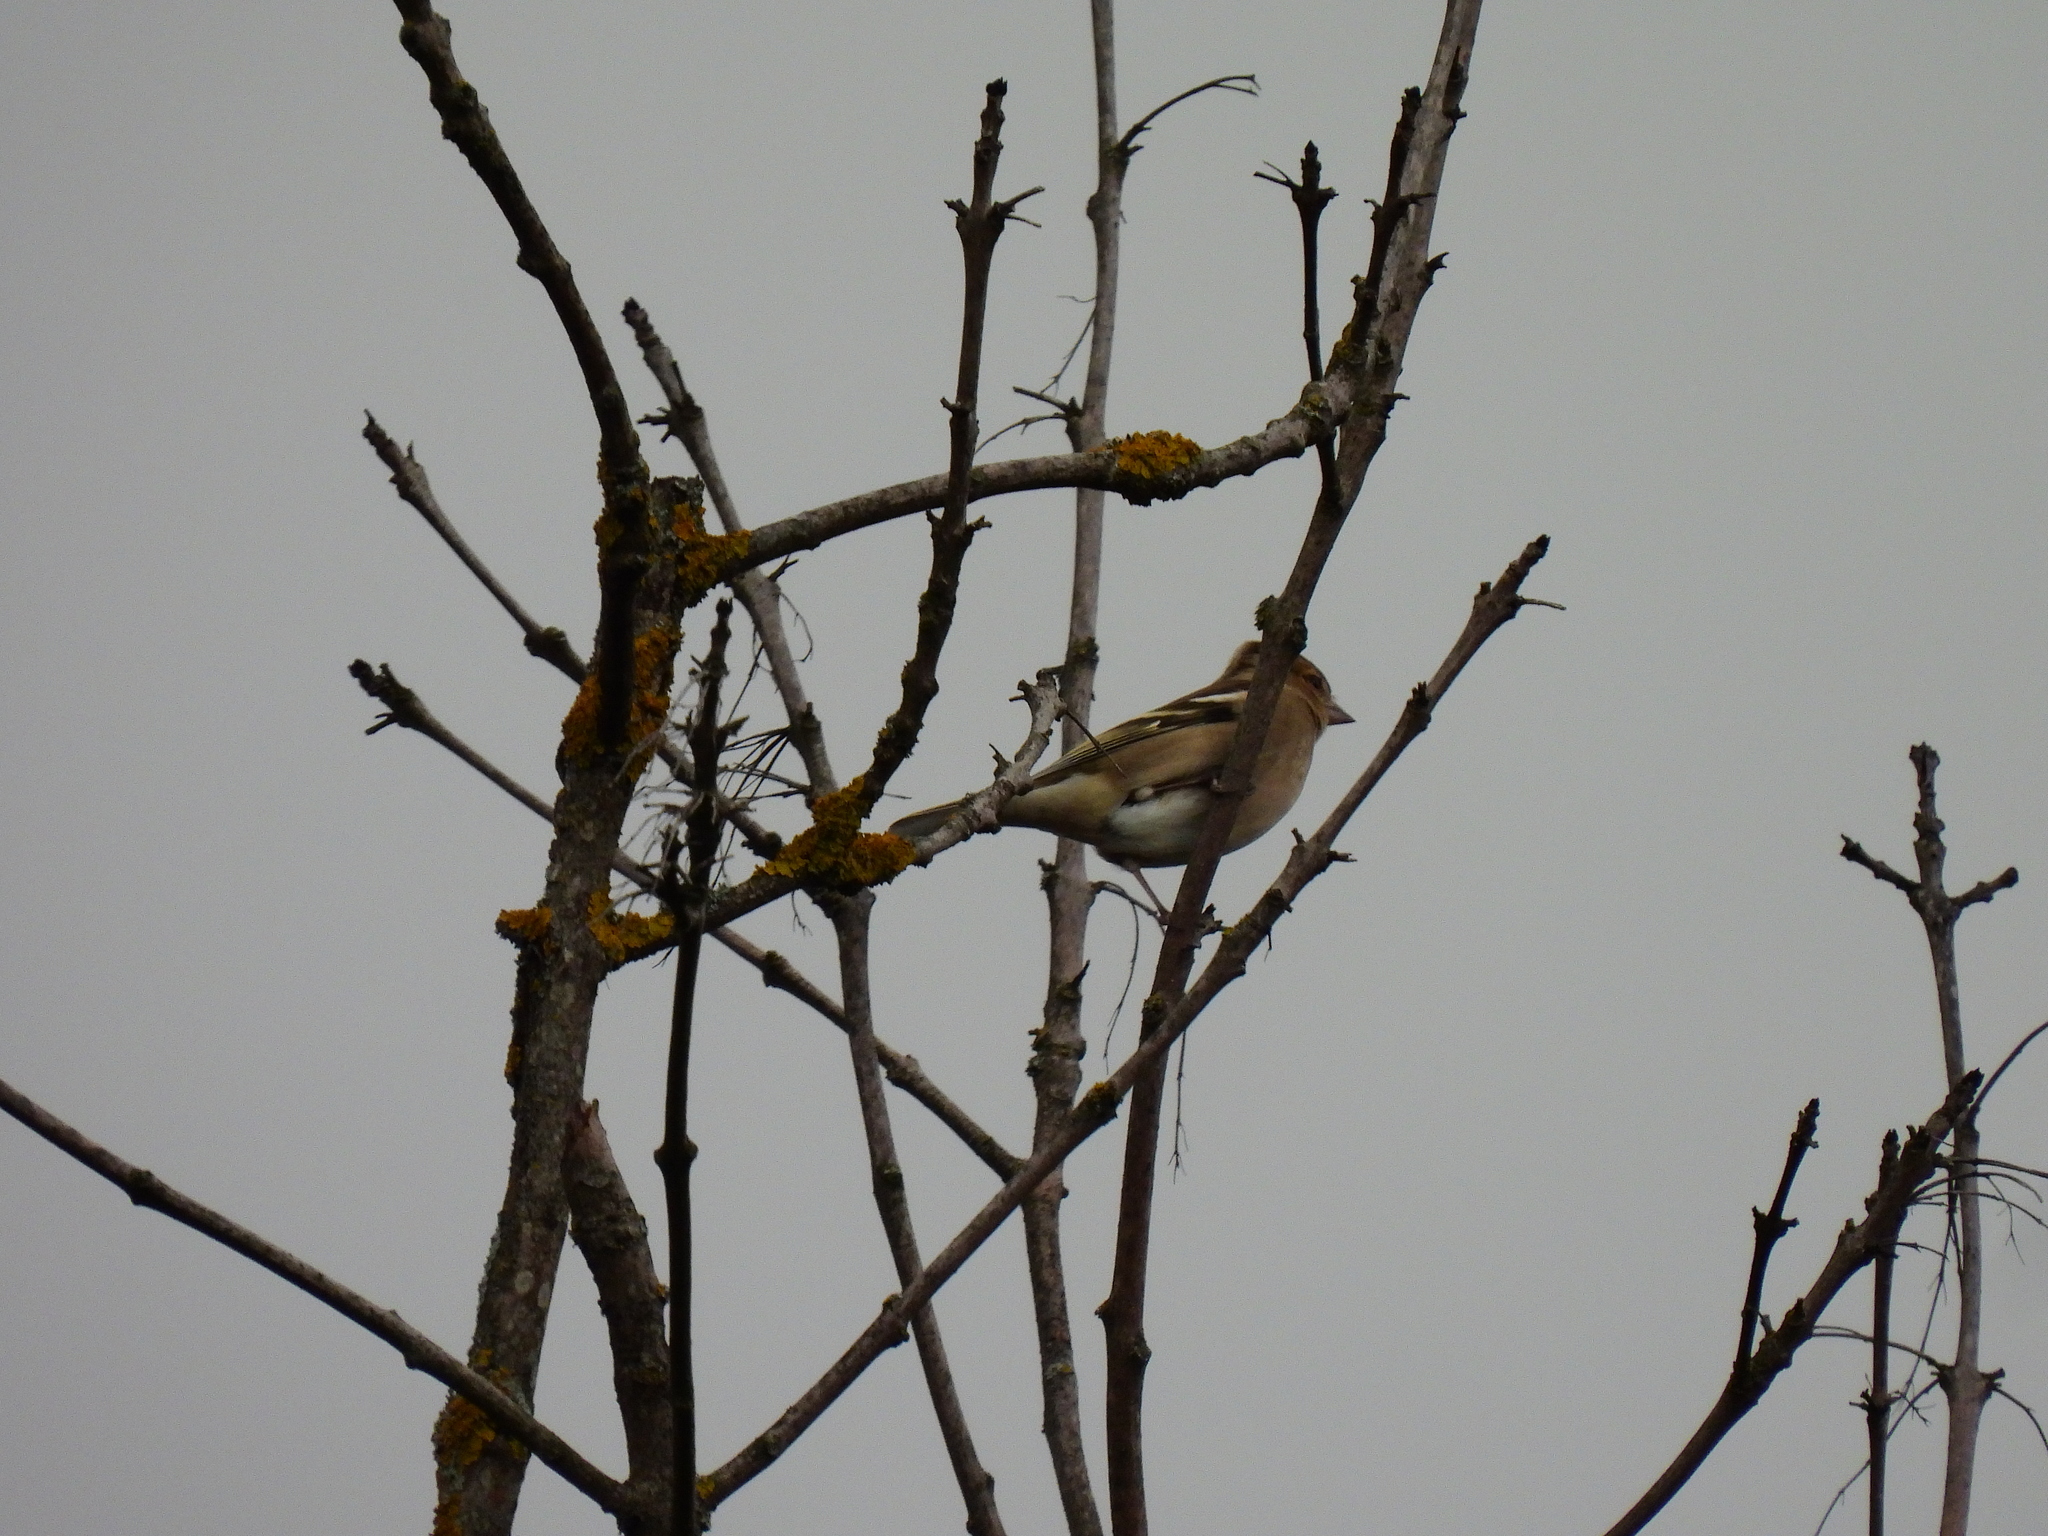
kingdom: Animalia
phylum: Chordata
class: Aves
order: Passeriformes
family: Fringillidae
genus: Fringilla
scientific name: Fringilla coelebs
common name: Common chaffinch
